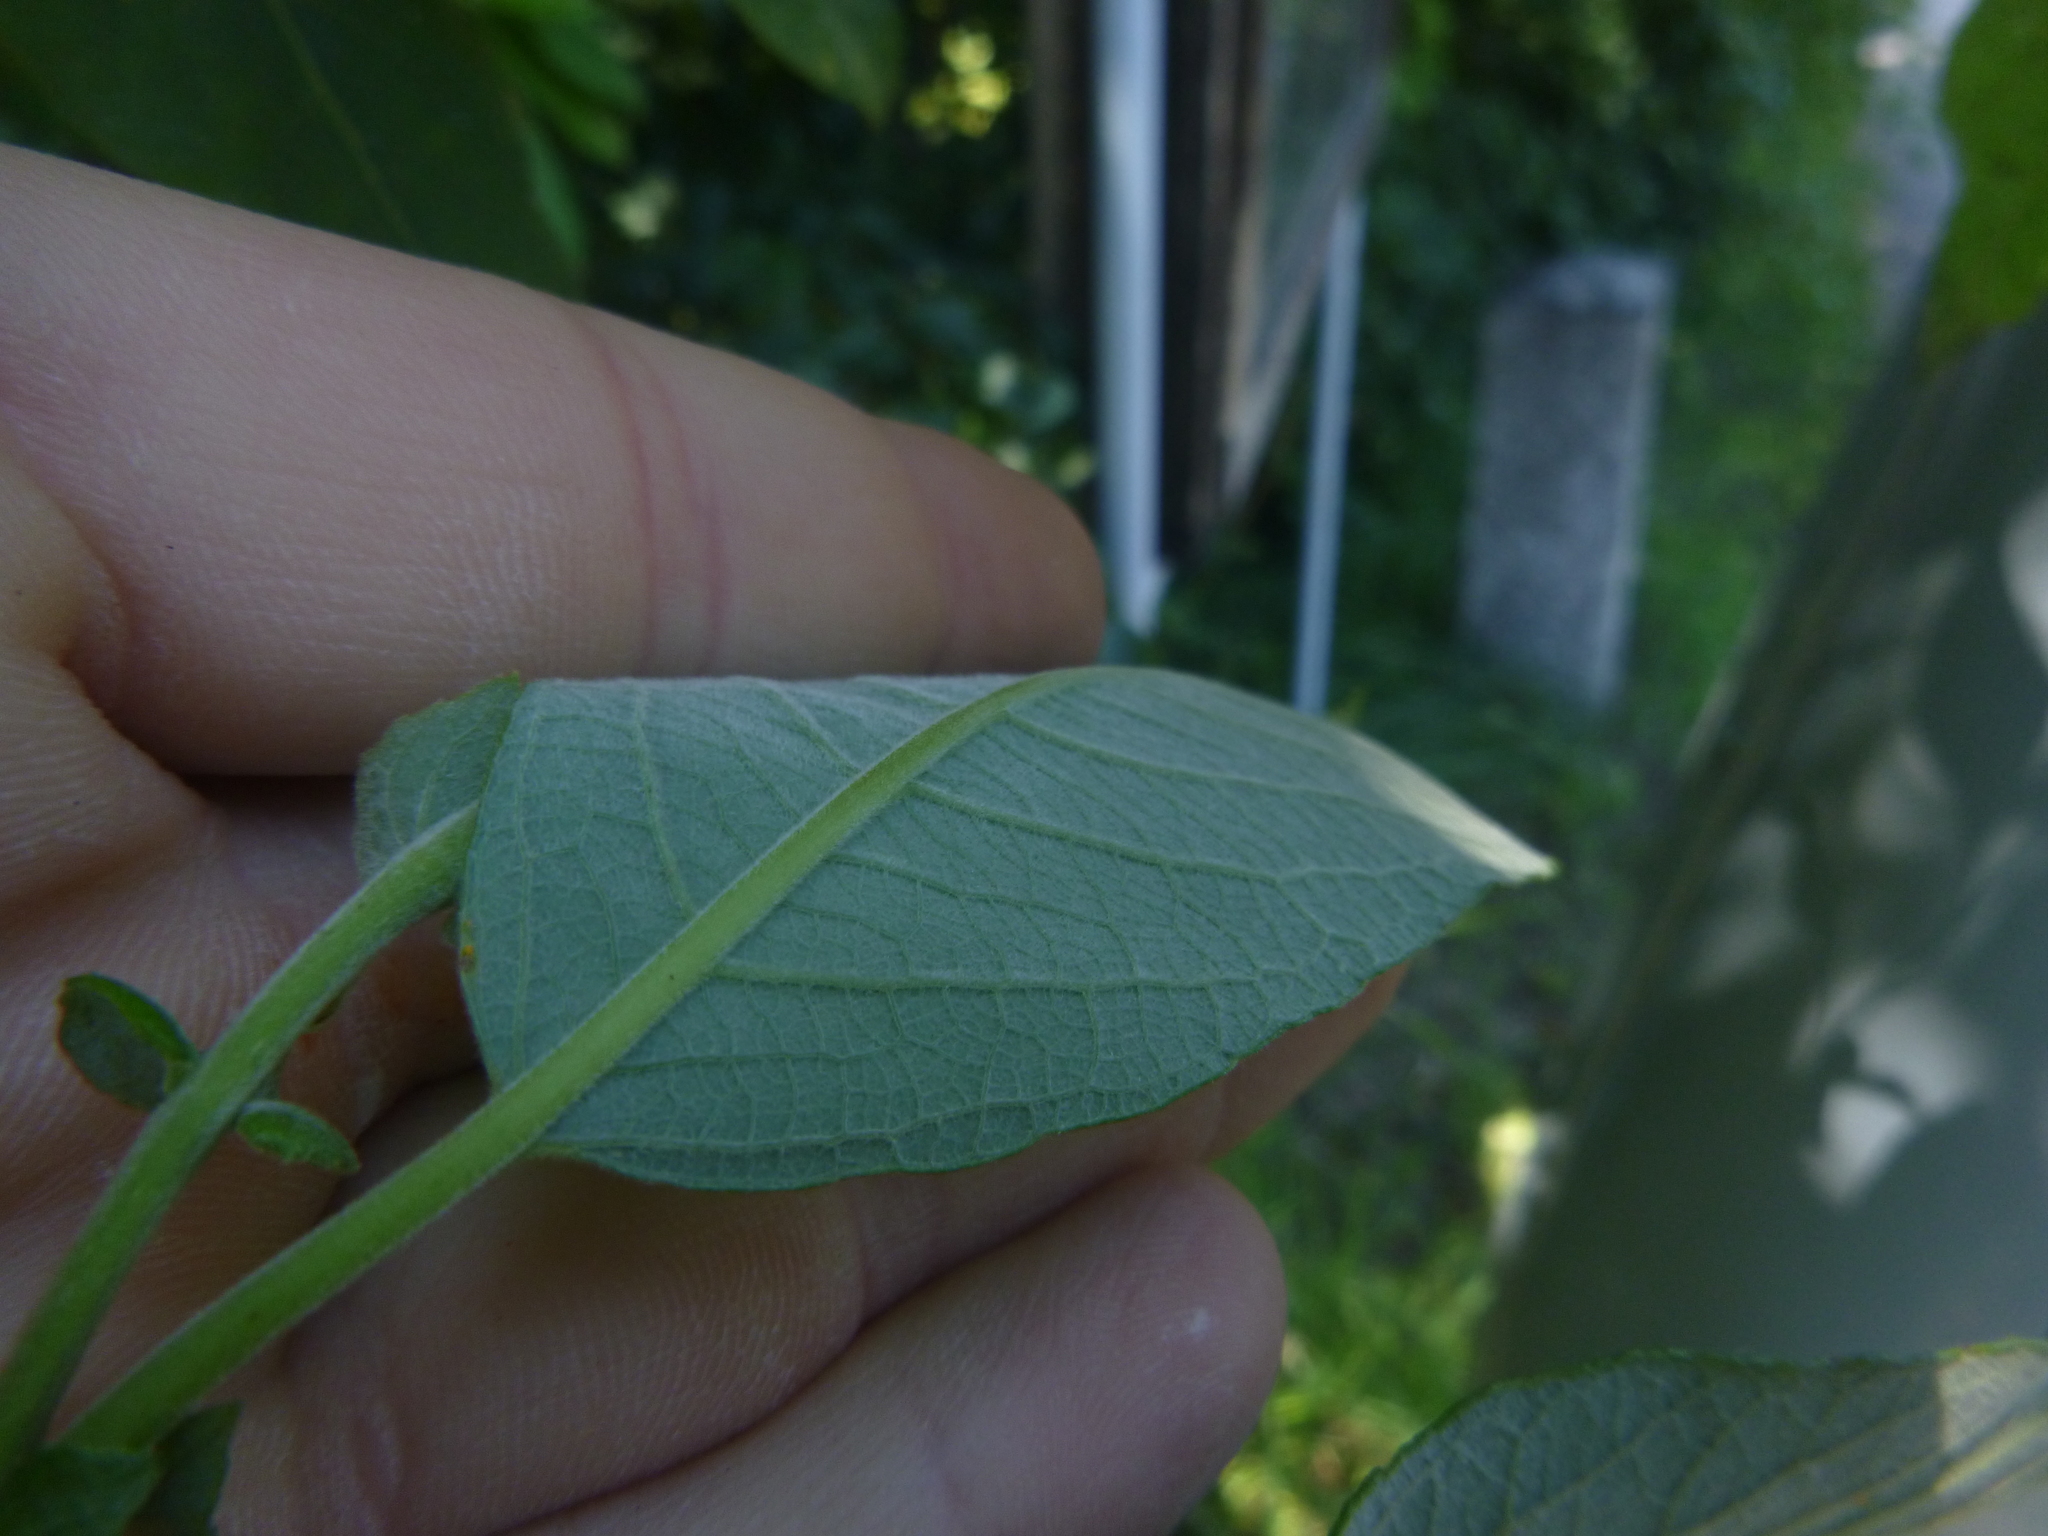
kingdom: Plantae
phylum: Tracheophyta
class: Magnoliopsida
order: Malpighiales
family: Salicaceae
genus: Salix
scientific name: Salix caprea
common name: Goat willow
